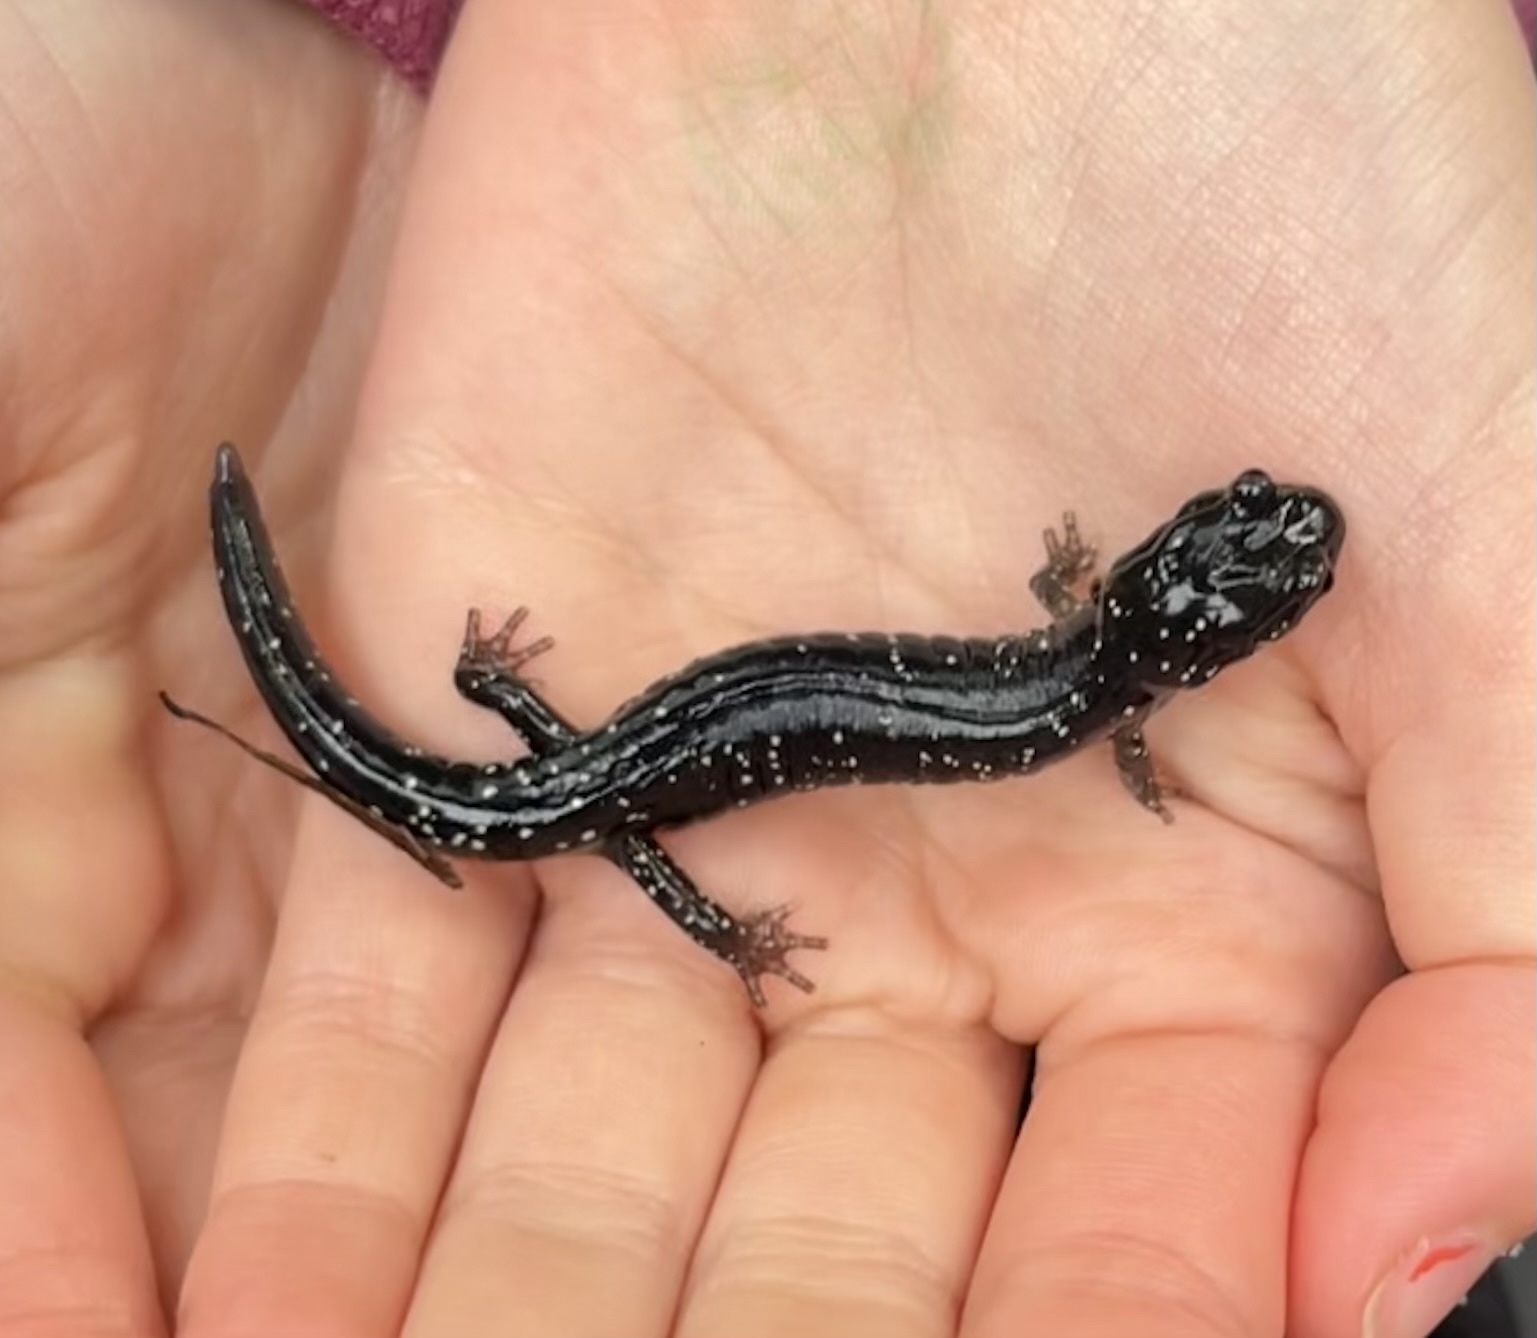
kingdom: Animalia
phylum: Chordata
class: Amphibia
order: Caudata
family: Plethodontidae
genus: Aneides
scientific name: Aneides flavipunctatus
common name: Black salamander
